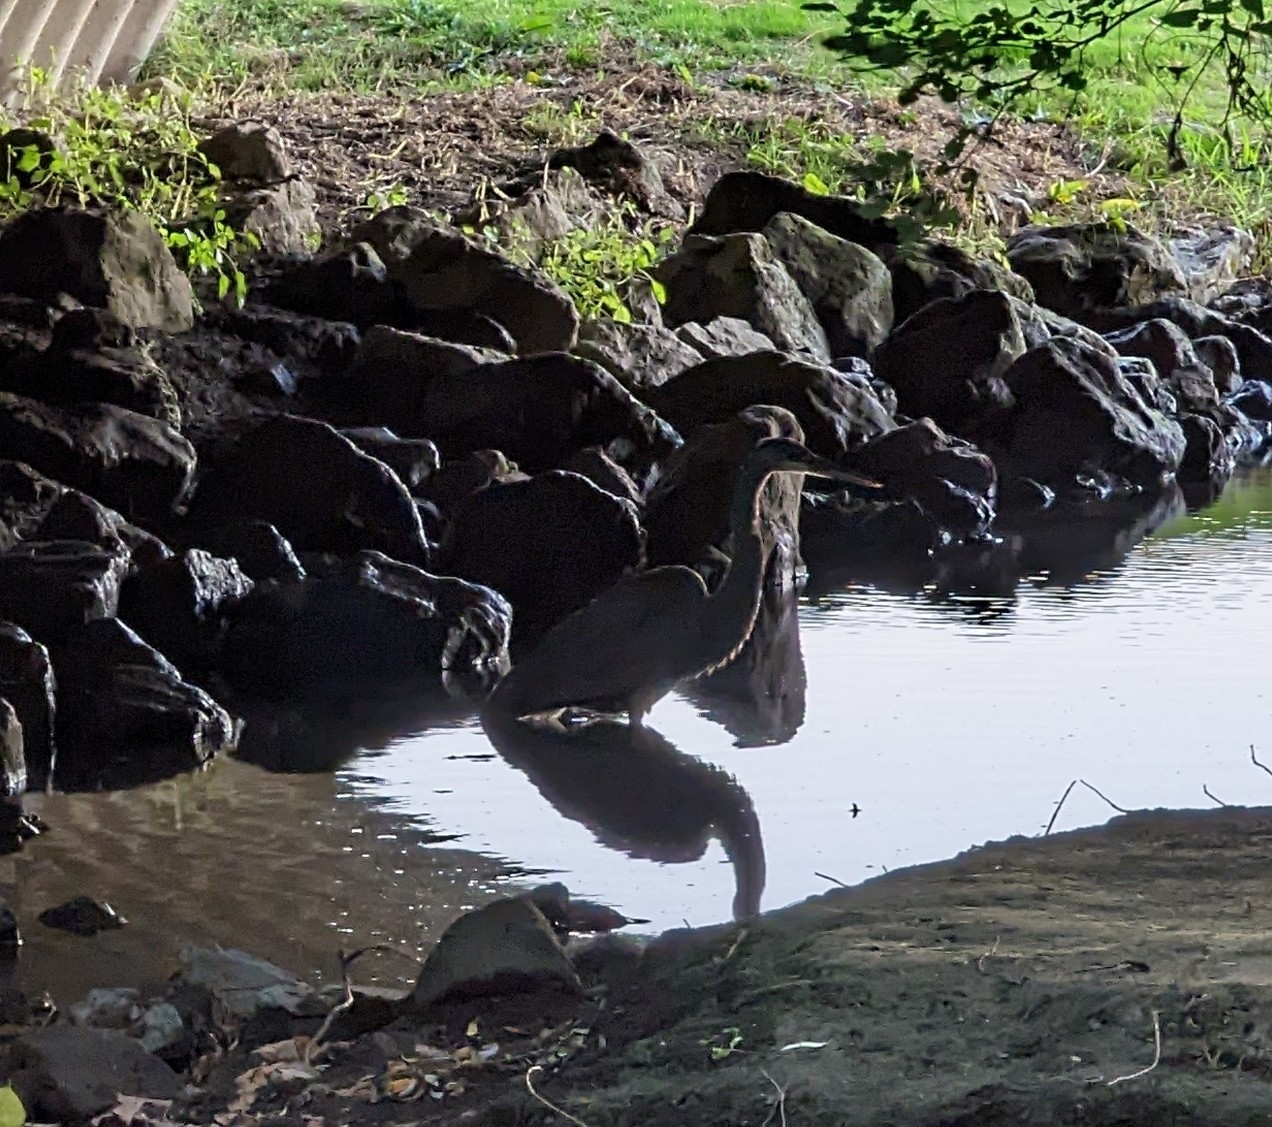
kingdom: Animalia
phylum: Chordata
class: Aves
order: Pelecaniformes
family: Ardeidae
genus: Ardea
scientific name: Ardea herodias
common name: Great blue heron
